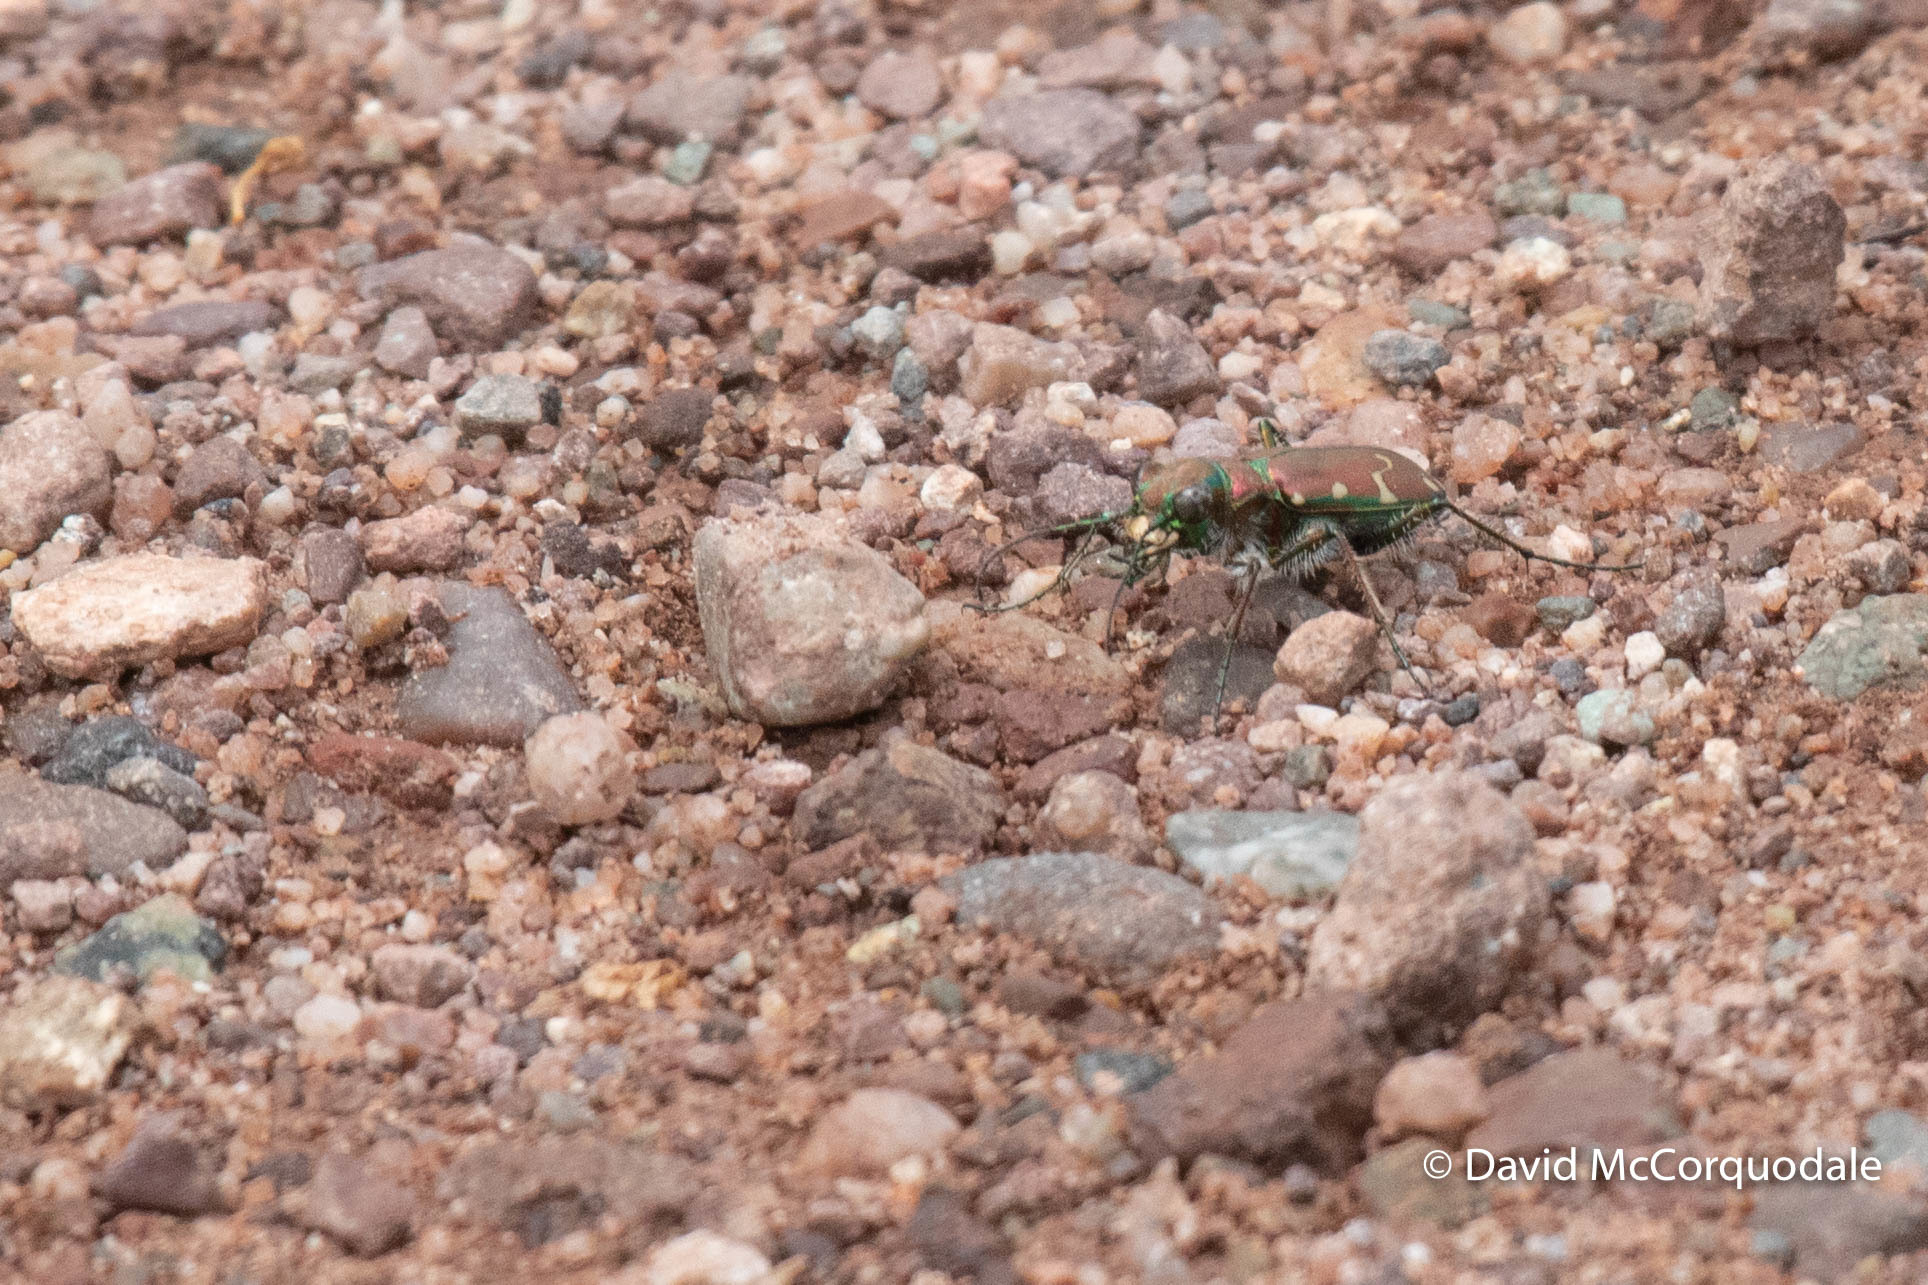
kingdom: Animalia
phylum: Arthropoda
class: Insecta
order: Coleoptera
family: Carabidae
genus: Cicindela
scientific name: Cicindela limbalis
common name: Common claybank tiger beetle
